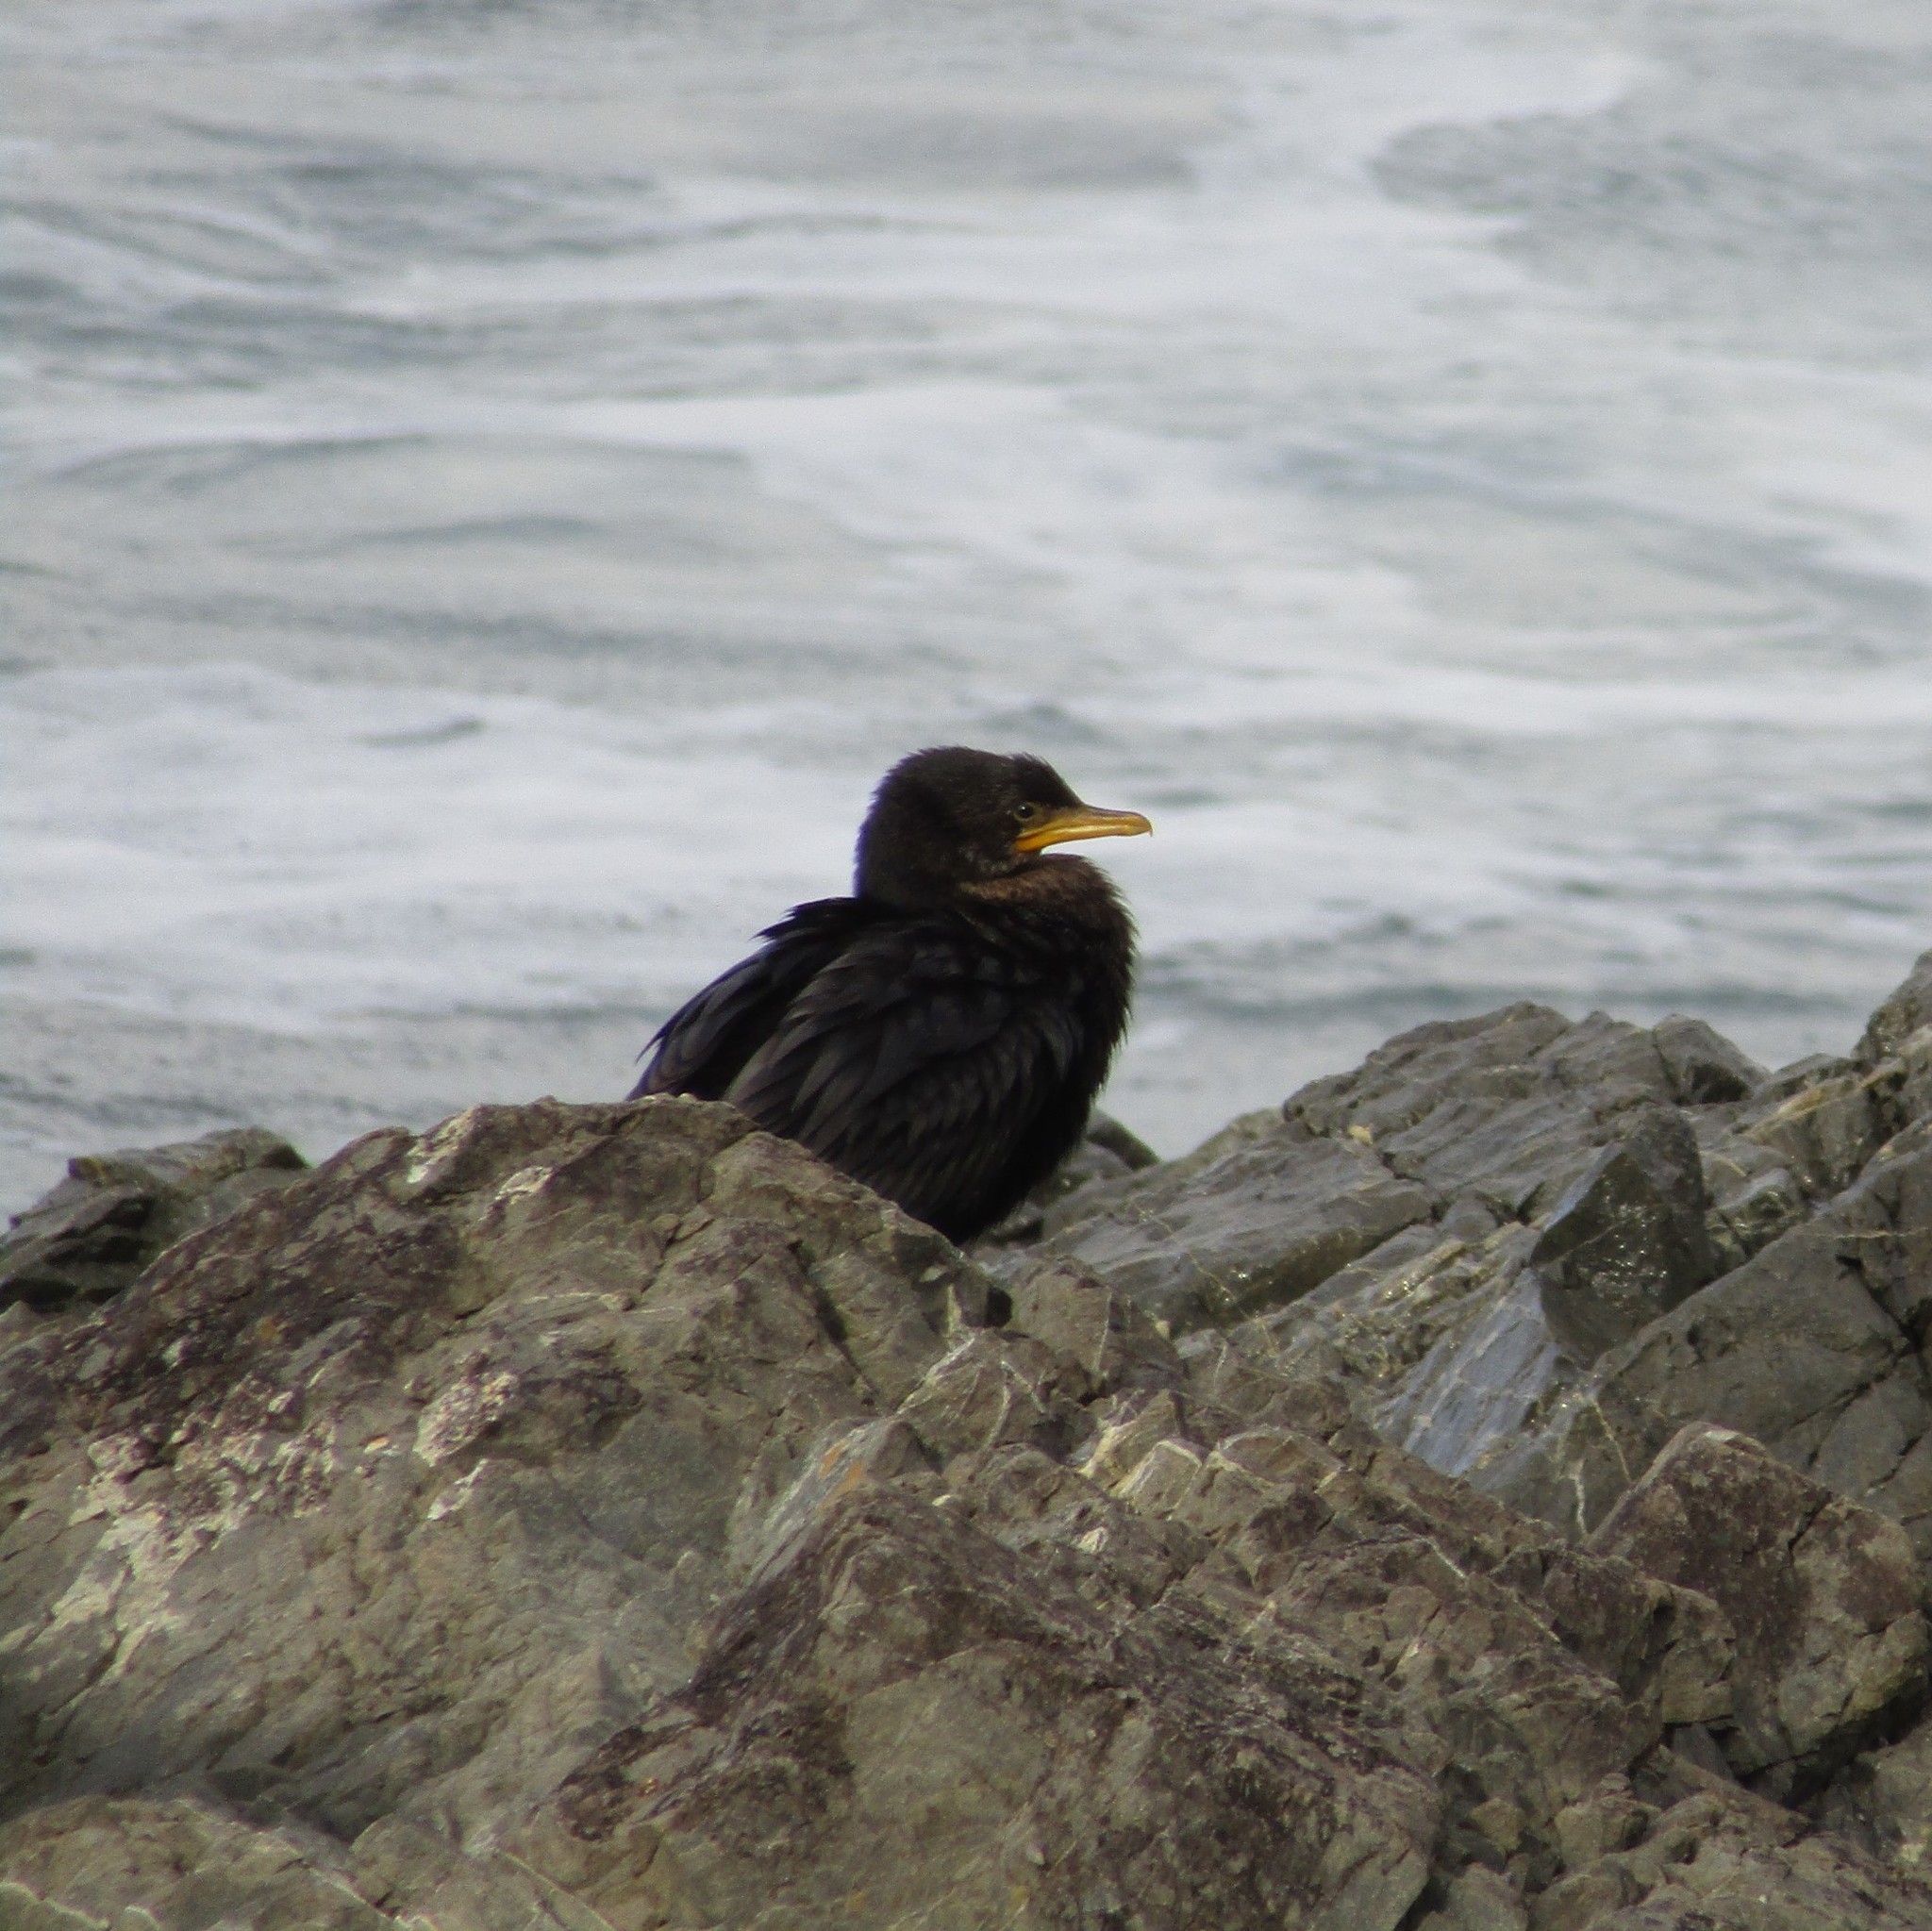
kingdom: Animalia
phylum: Chordata
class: Aves
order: Suliformes
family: Phalacrocoracidae
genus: Microcarbo
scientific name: Microcarbo melanoleucos
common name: Little pied cormorant
